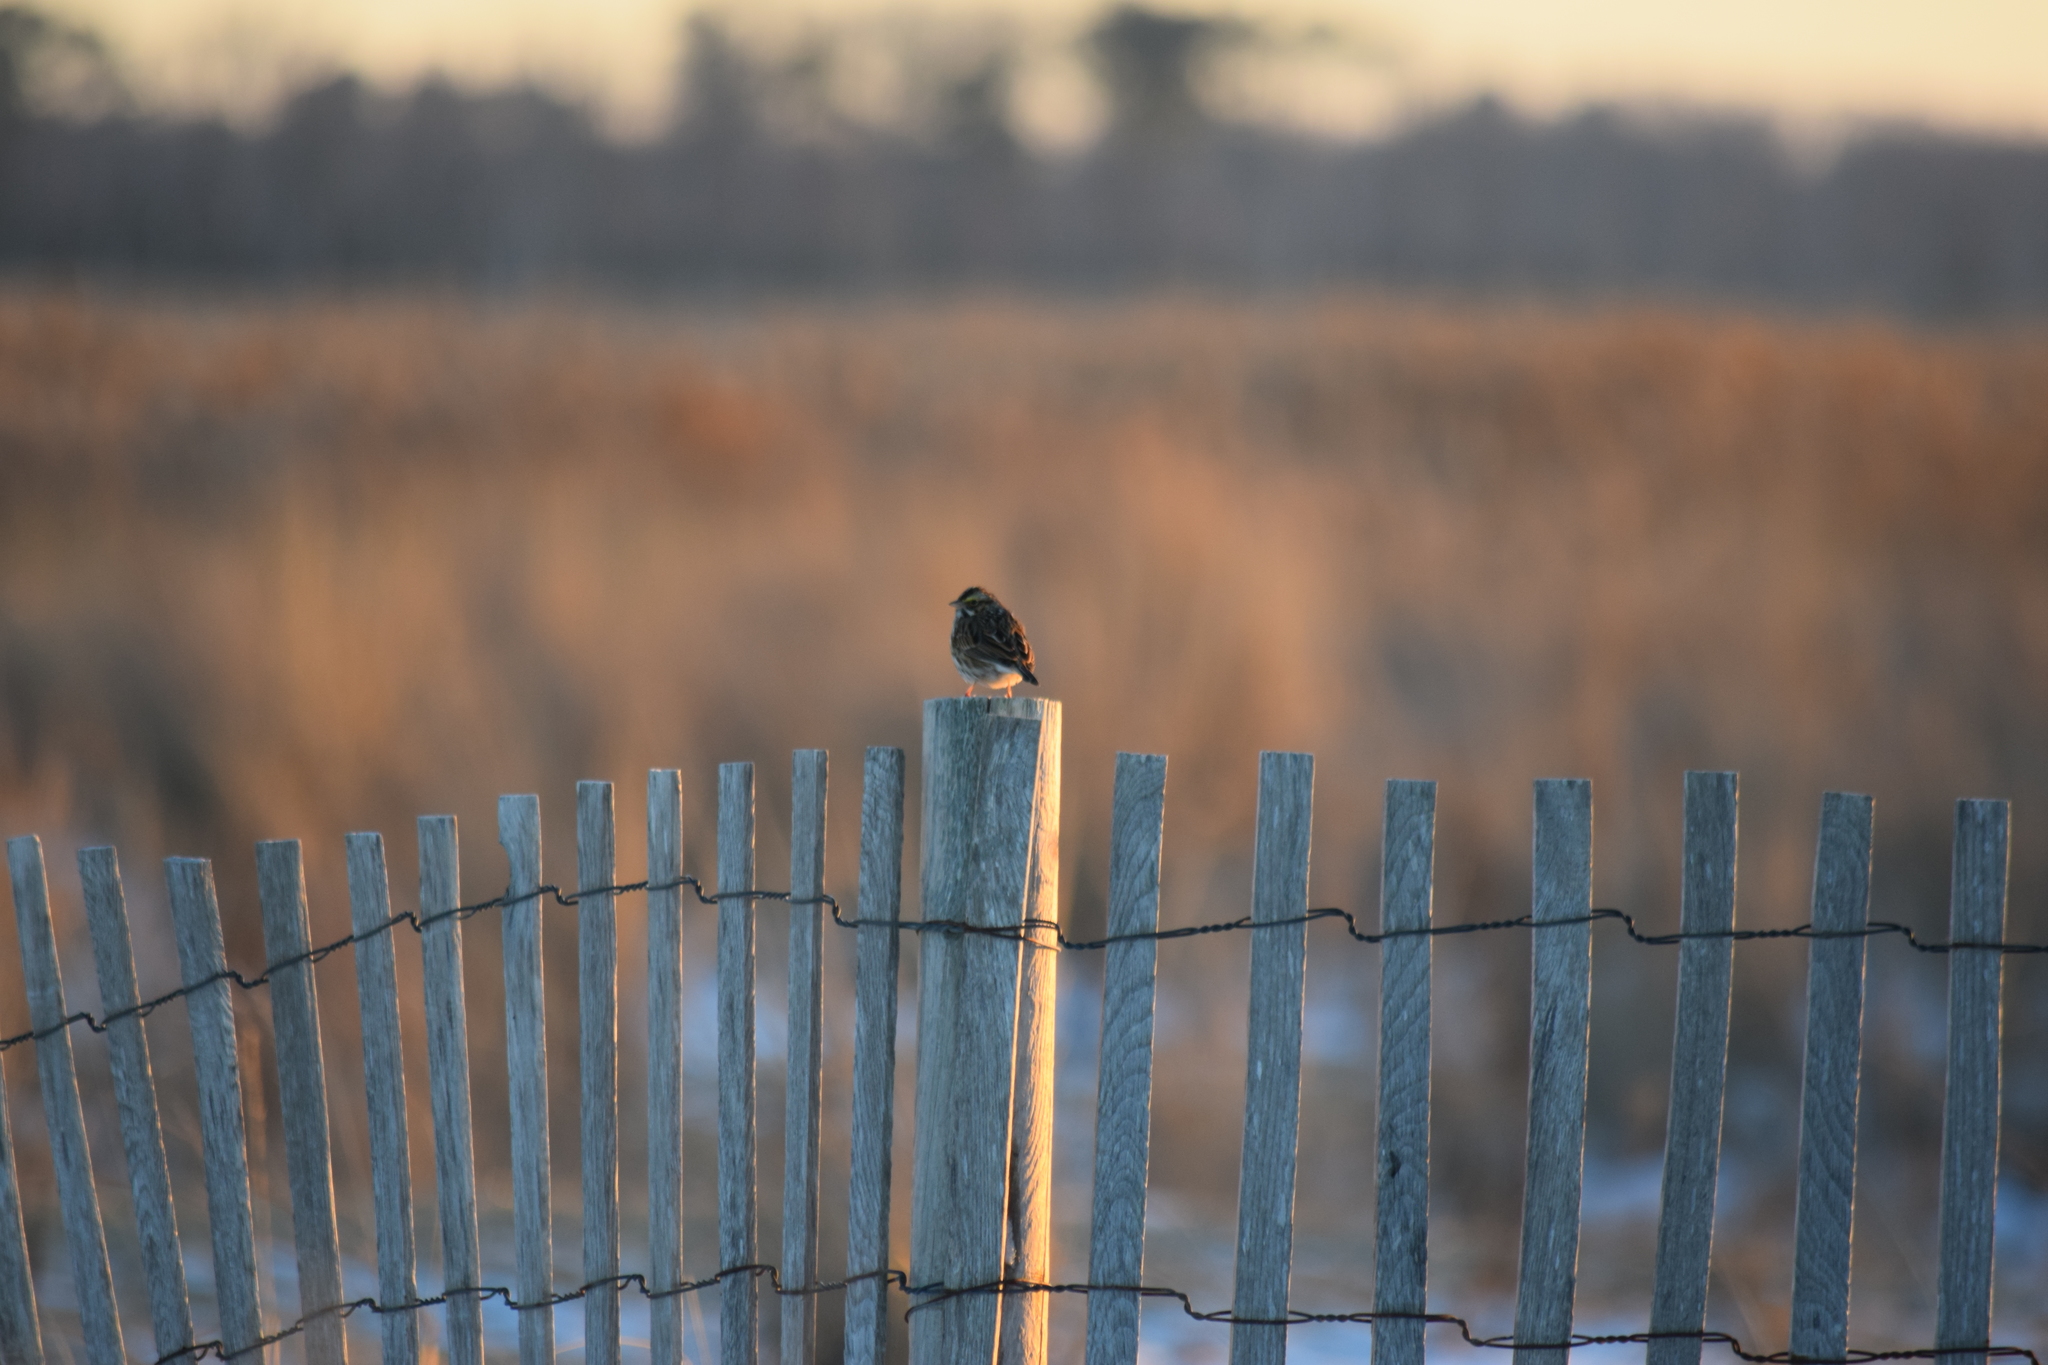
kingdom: Animalia
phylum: Chordata
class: Aves
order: Passeriformes
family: Passerellidae
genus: Passerculus
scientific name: Passerculus sandwichensis
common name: Savannah sparrow
